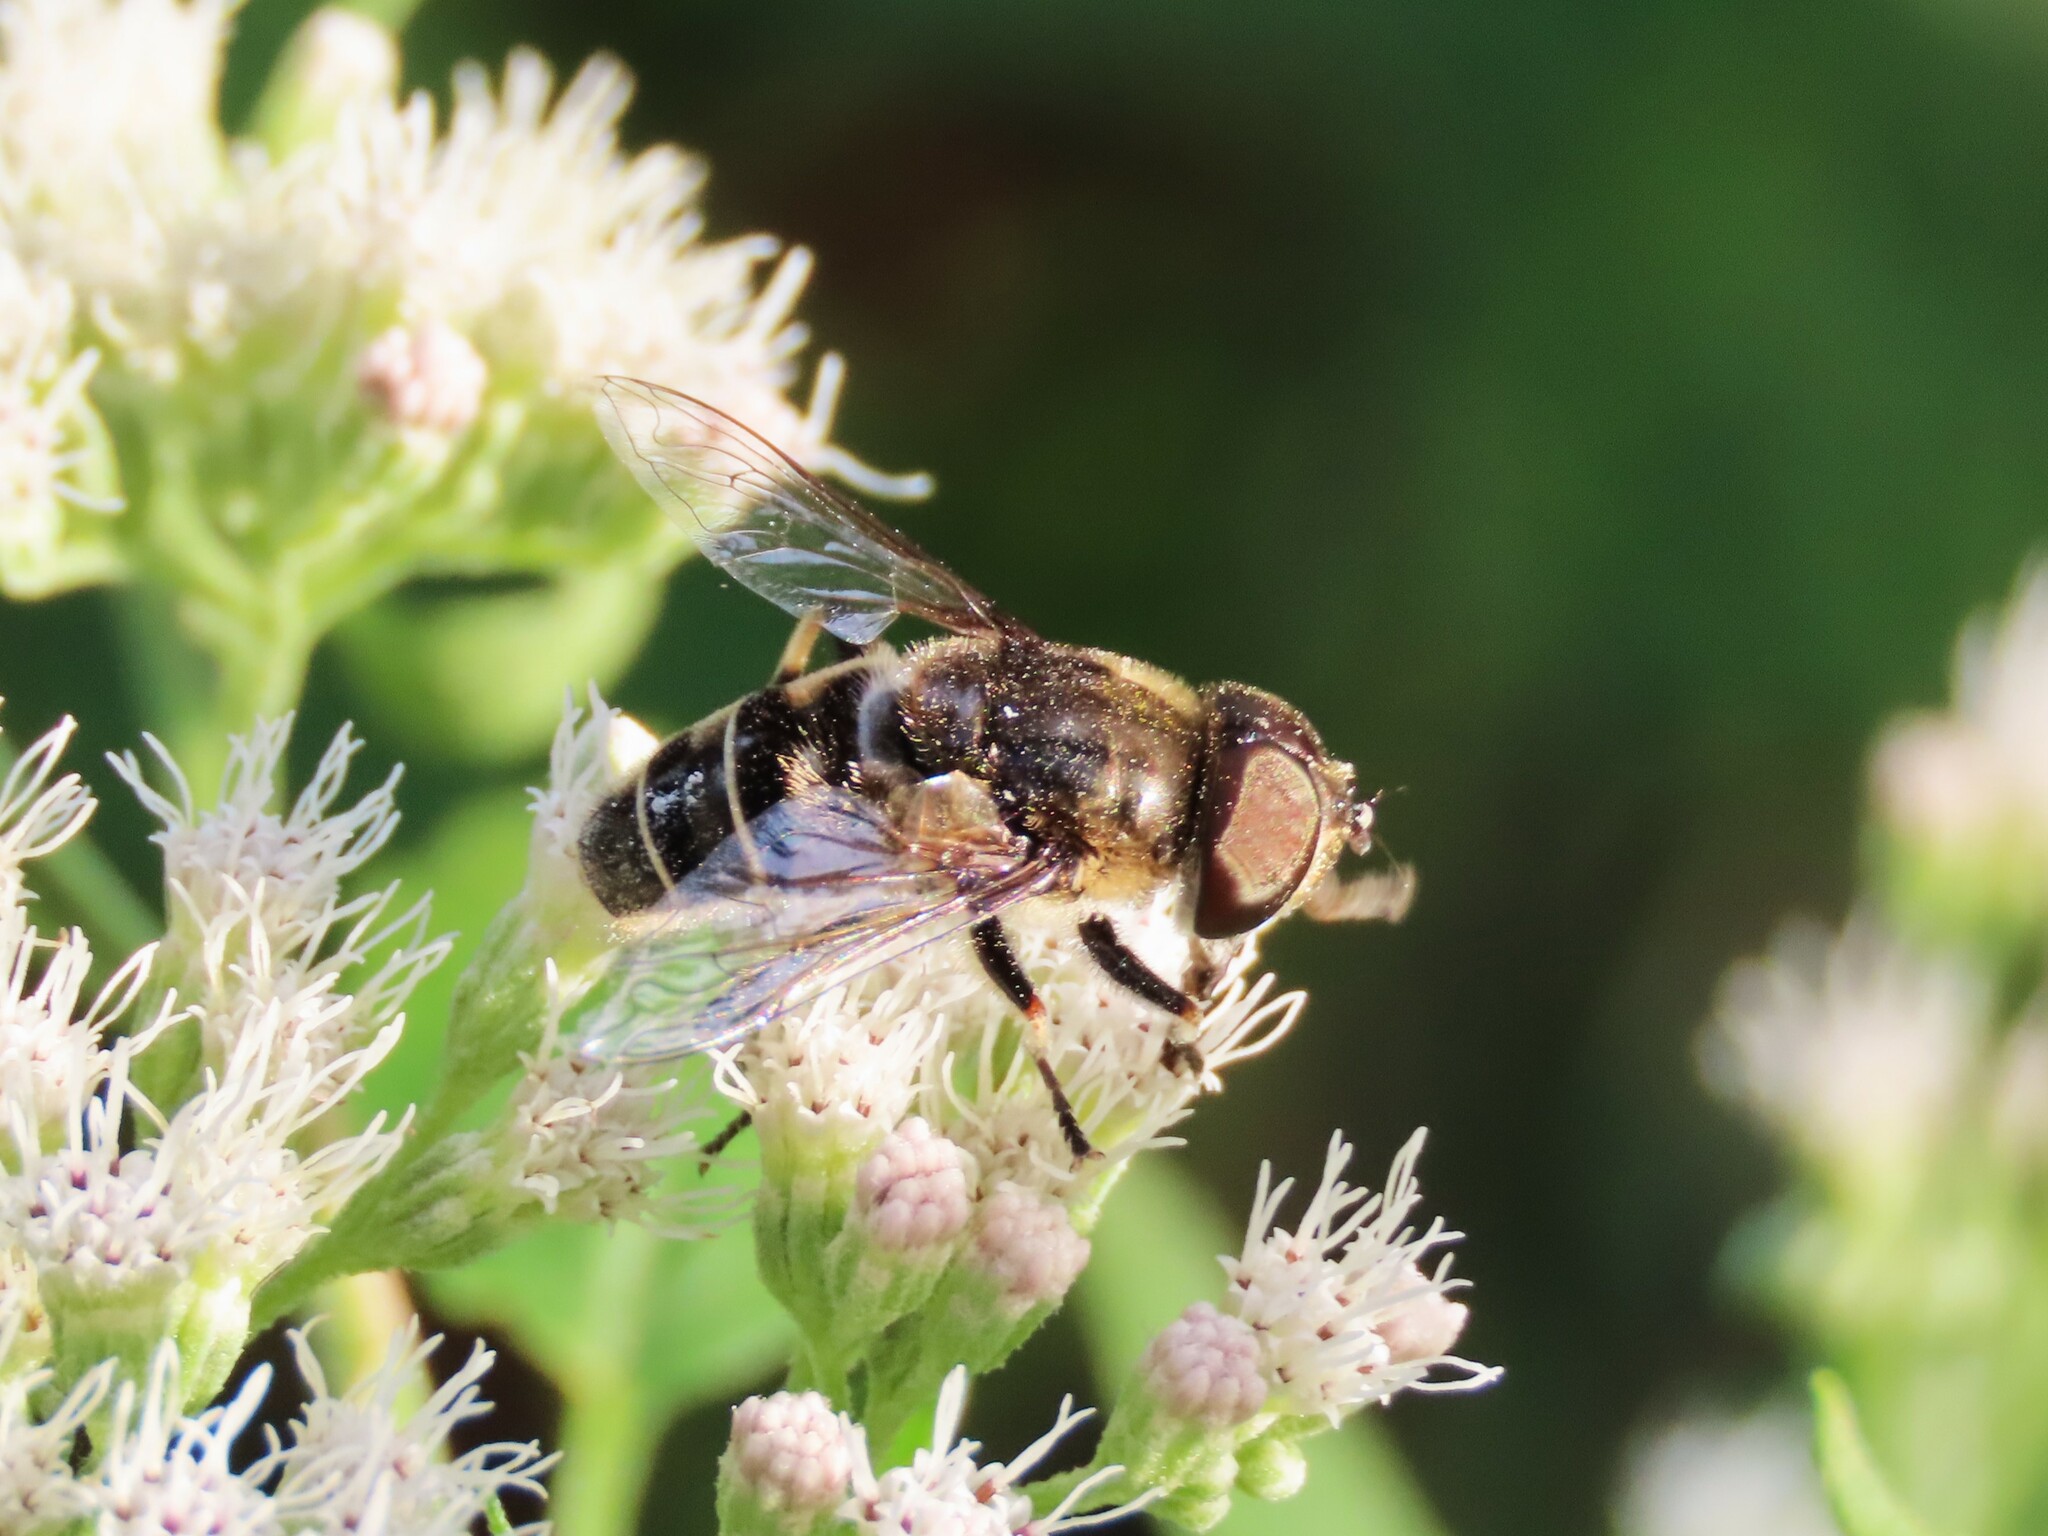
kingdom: Animalia
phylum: Arthropoda
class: Insecta
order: Diptera
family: Syrphidae
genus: Eristalis
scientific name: Eristalis dimidiata
